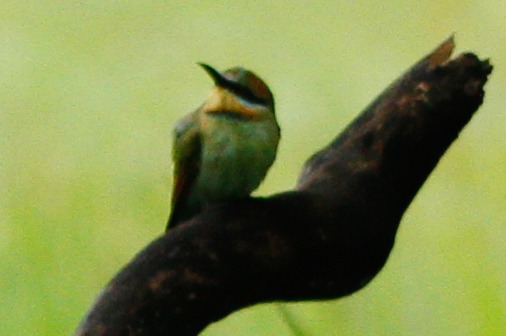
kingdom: Animalia
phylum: Chordata
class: Aves
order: Coraciiformes
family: Meropidae
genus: Merops
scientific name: Merops ornatus
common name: Rainbow bee-eater
